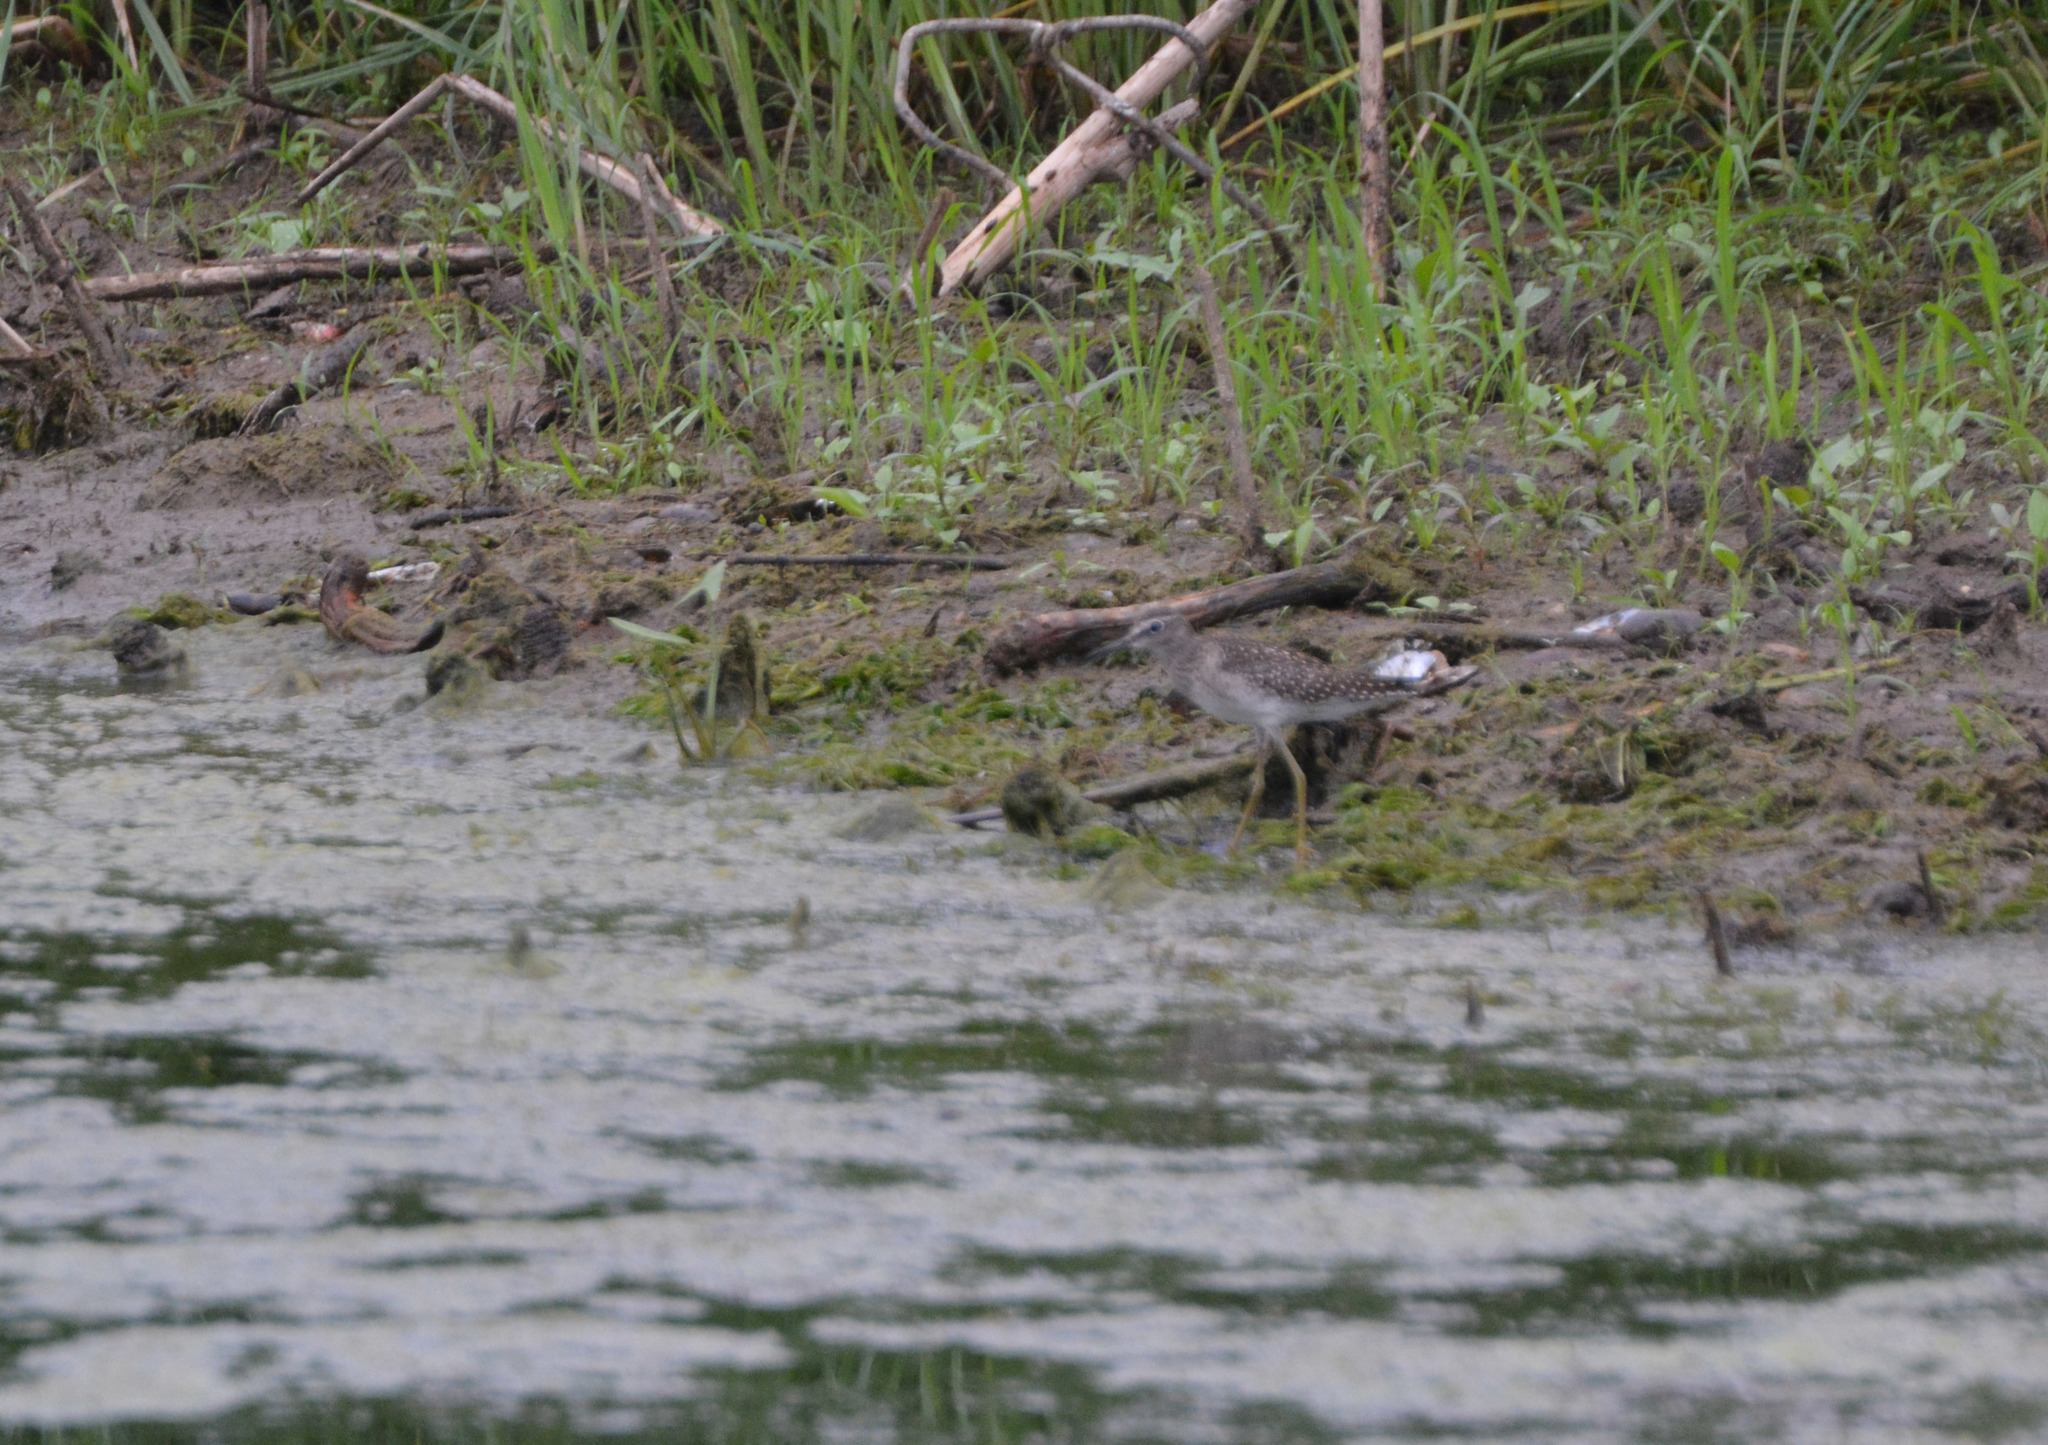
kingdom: Animalia
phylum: Chordata
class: Aves
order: Charadriiformes
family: Scolopacidae
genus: Tringa
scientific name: Tringa glareola
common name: Wood sandpiper
